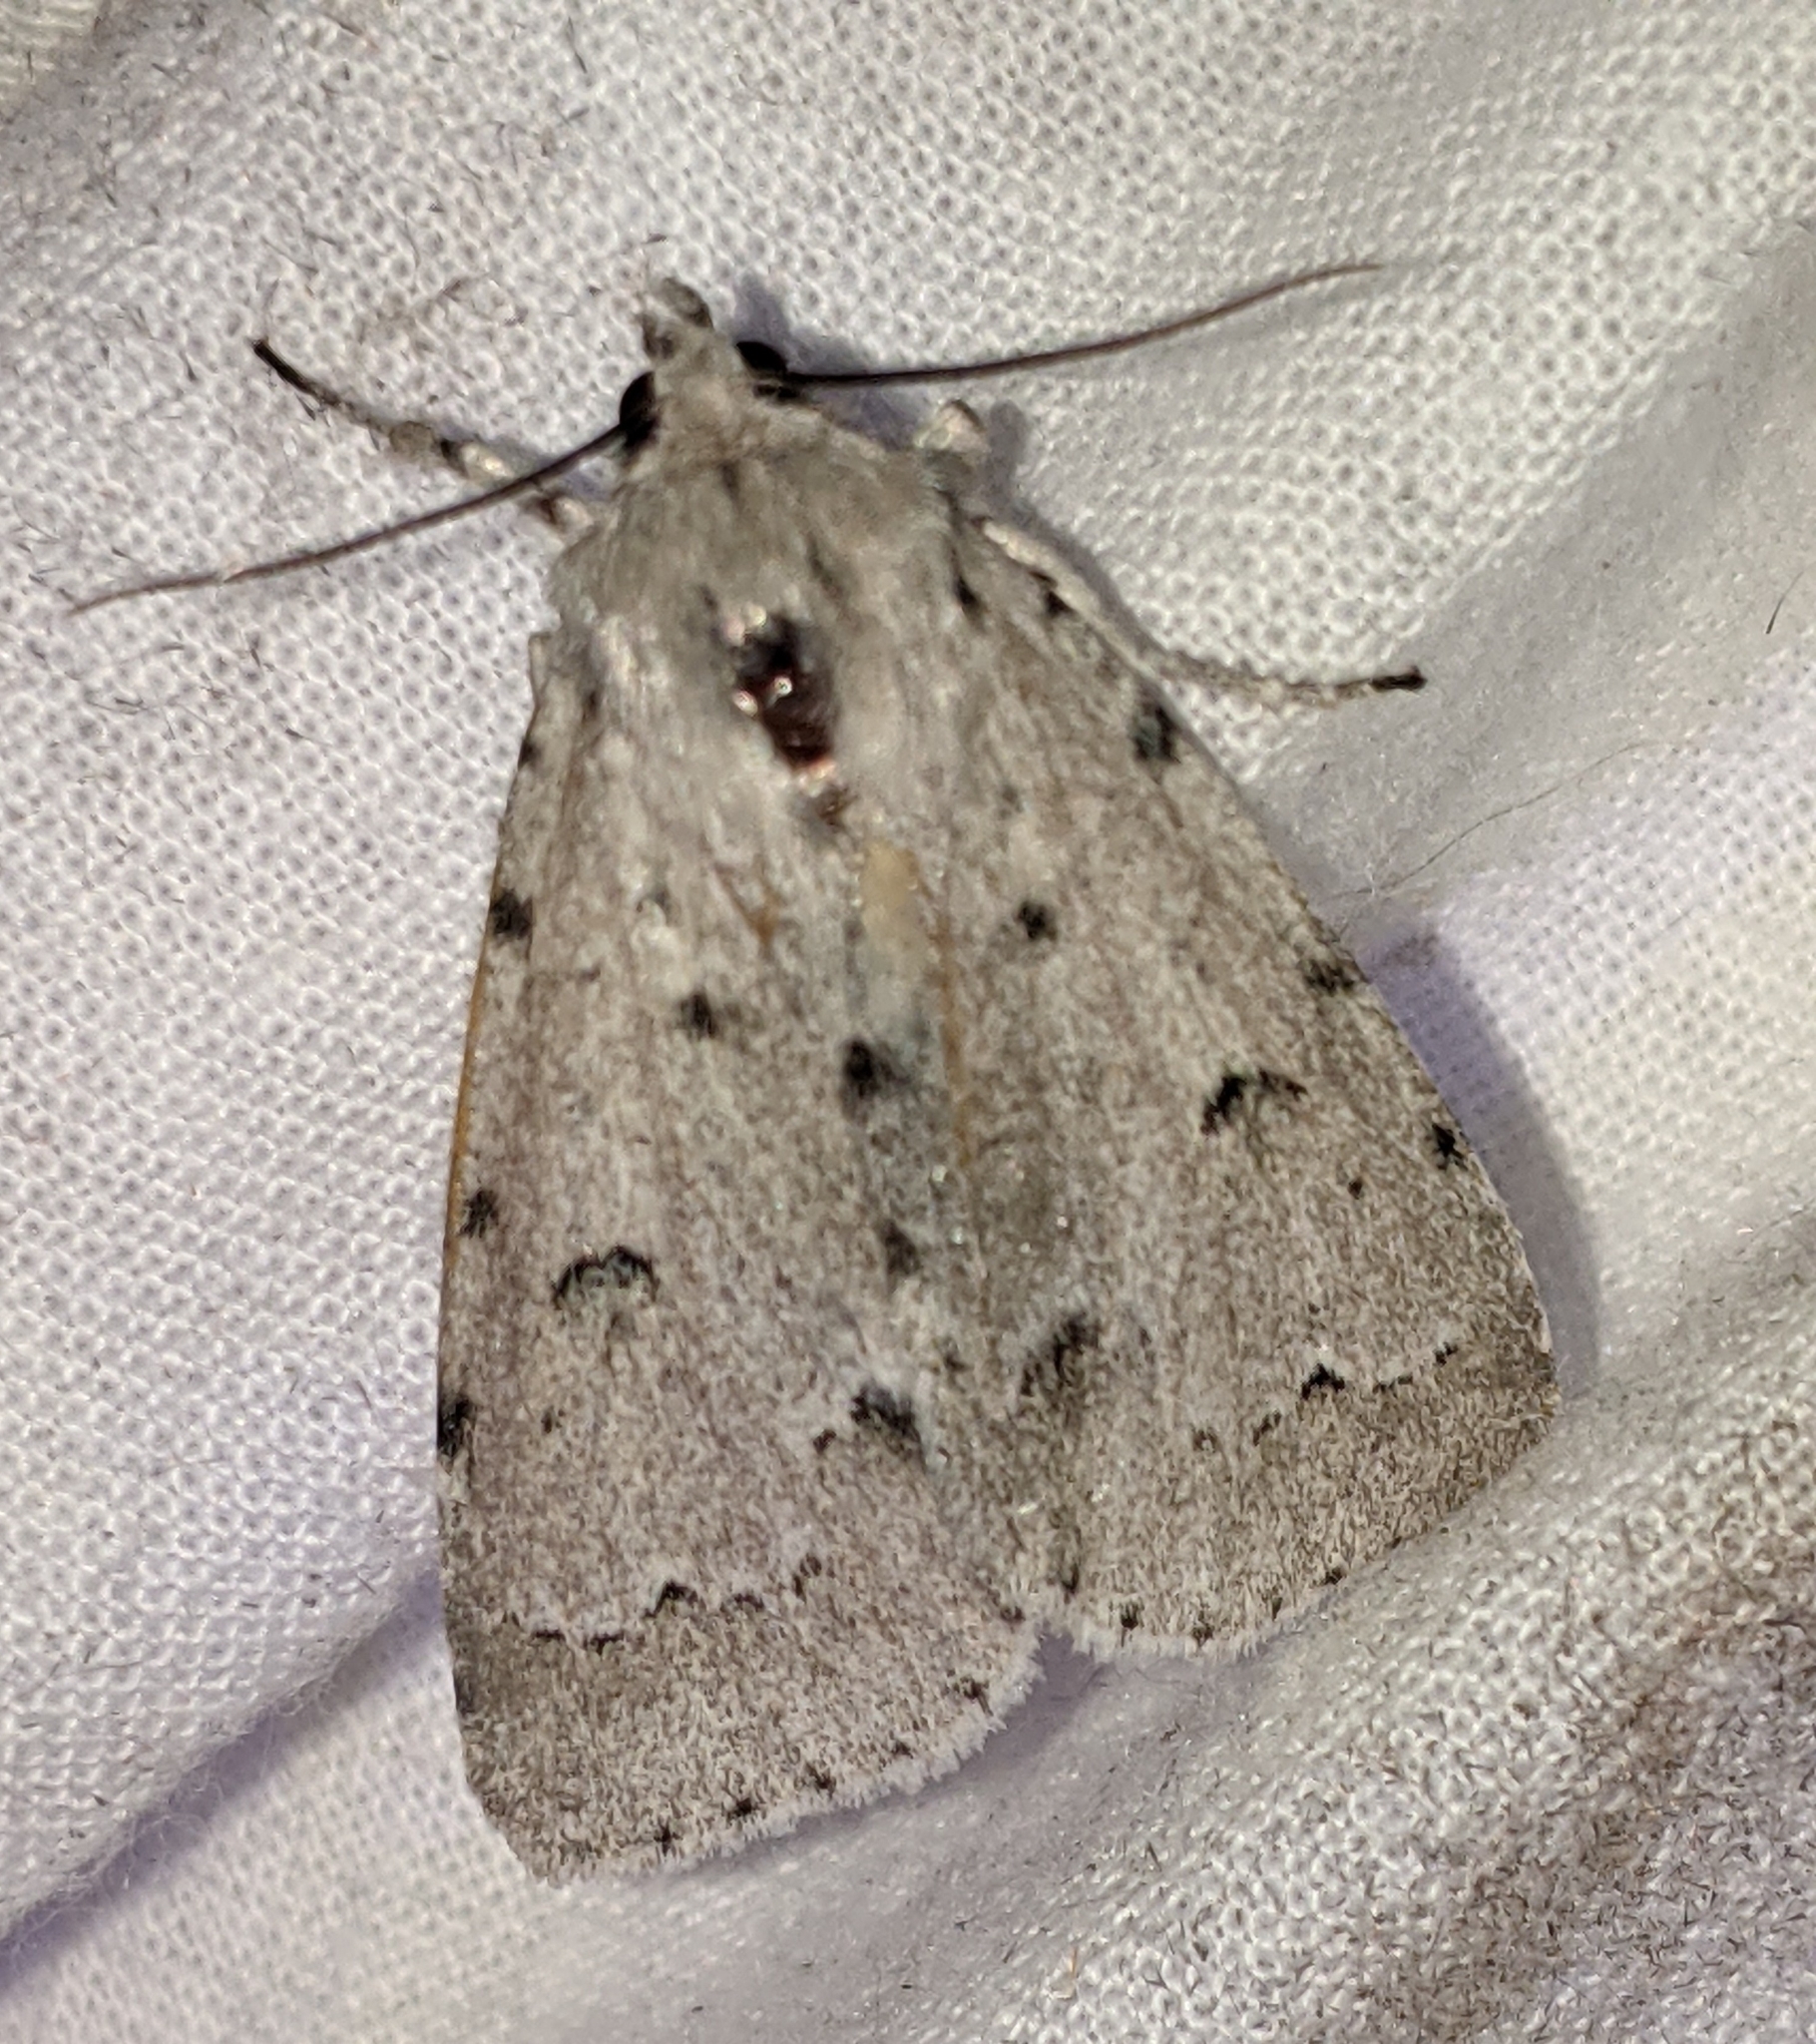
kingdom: Animalia
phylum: Arthropoda
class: Insecta
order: Lepidoptera
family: Noctuidae
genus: Acronicta
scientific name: Acronicta innotata
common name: Unmarked dagger
